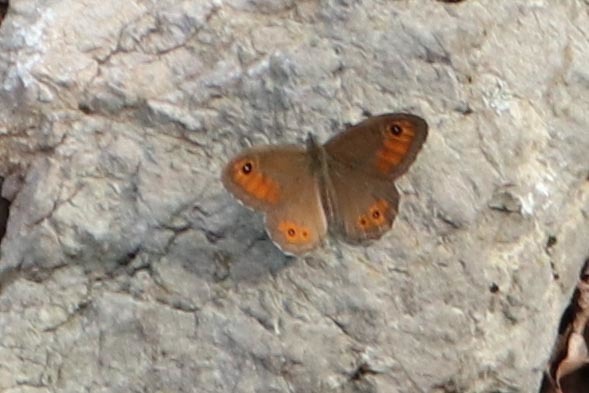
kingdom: Animalia
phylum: Arthropoda
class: Insecta
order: Lepidoptera
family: Nymphalidae
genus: Pararge
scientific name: Pararge Lasiommata maera
